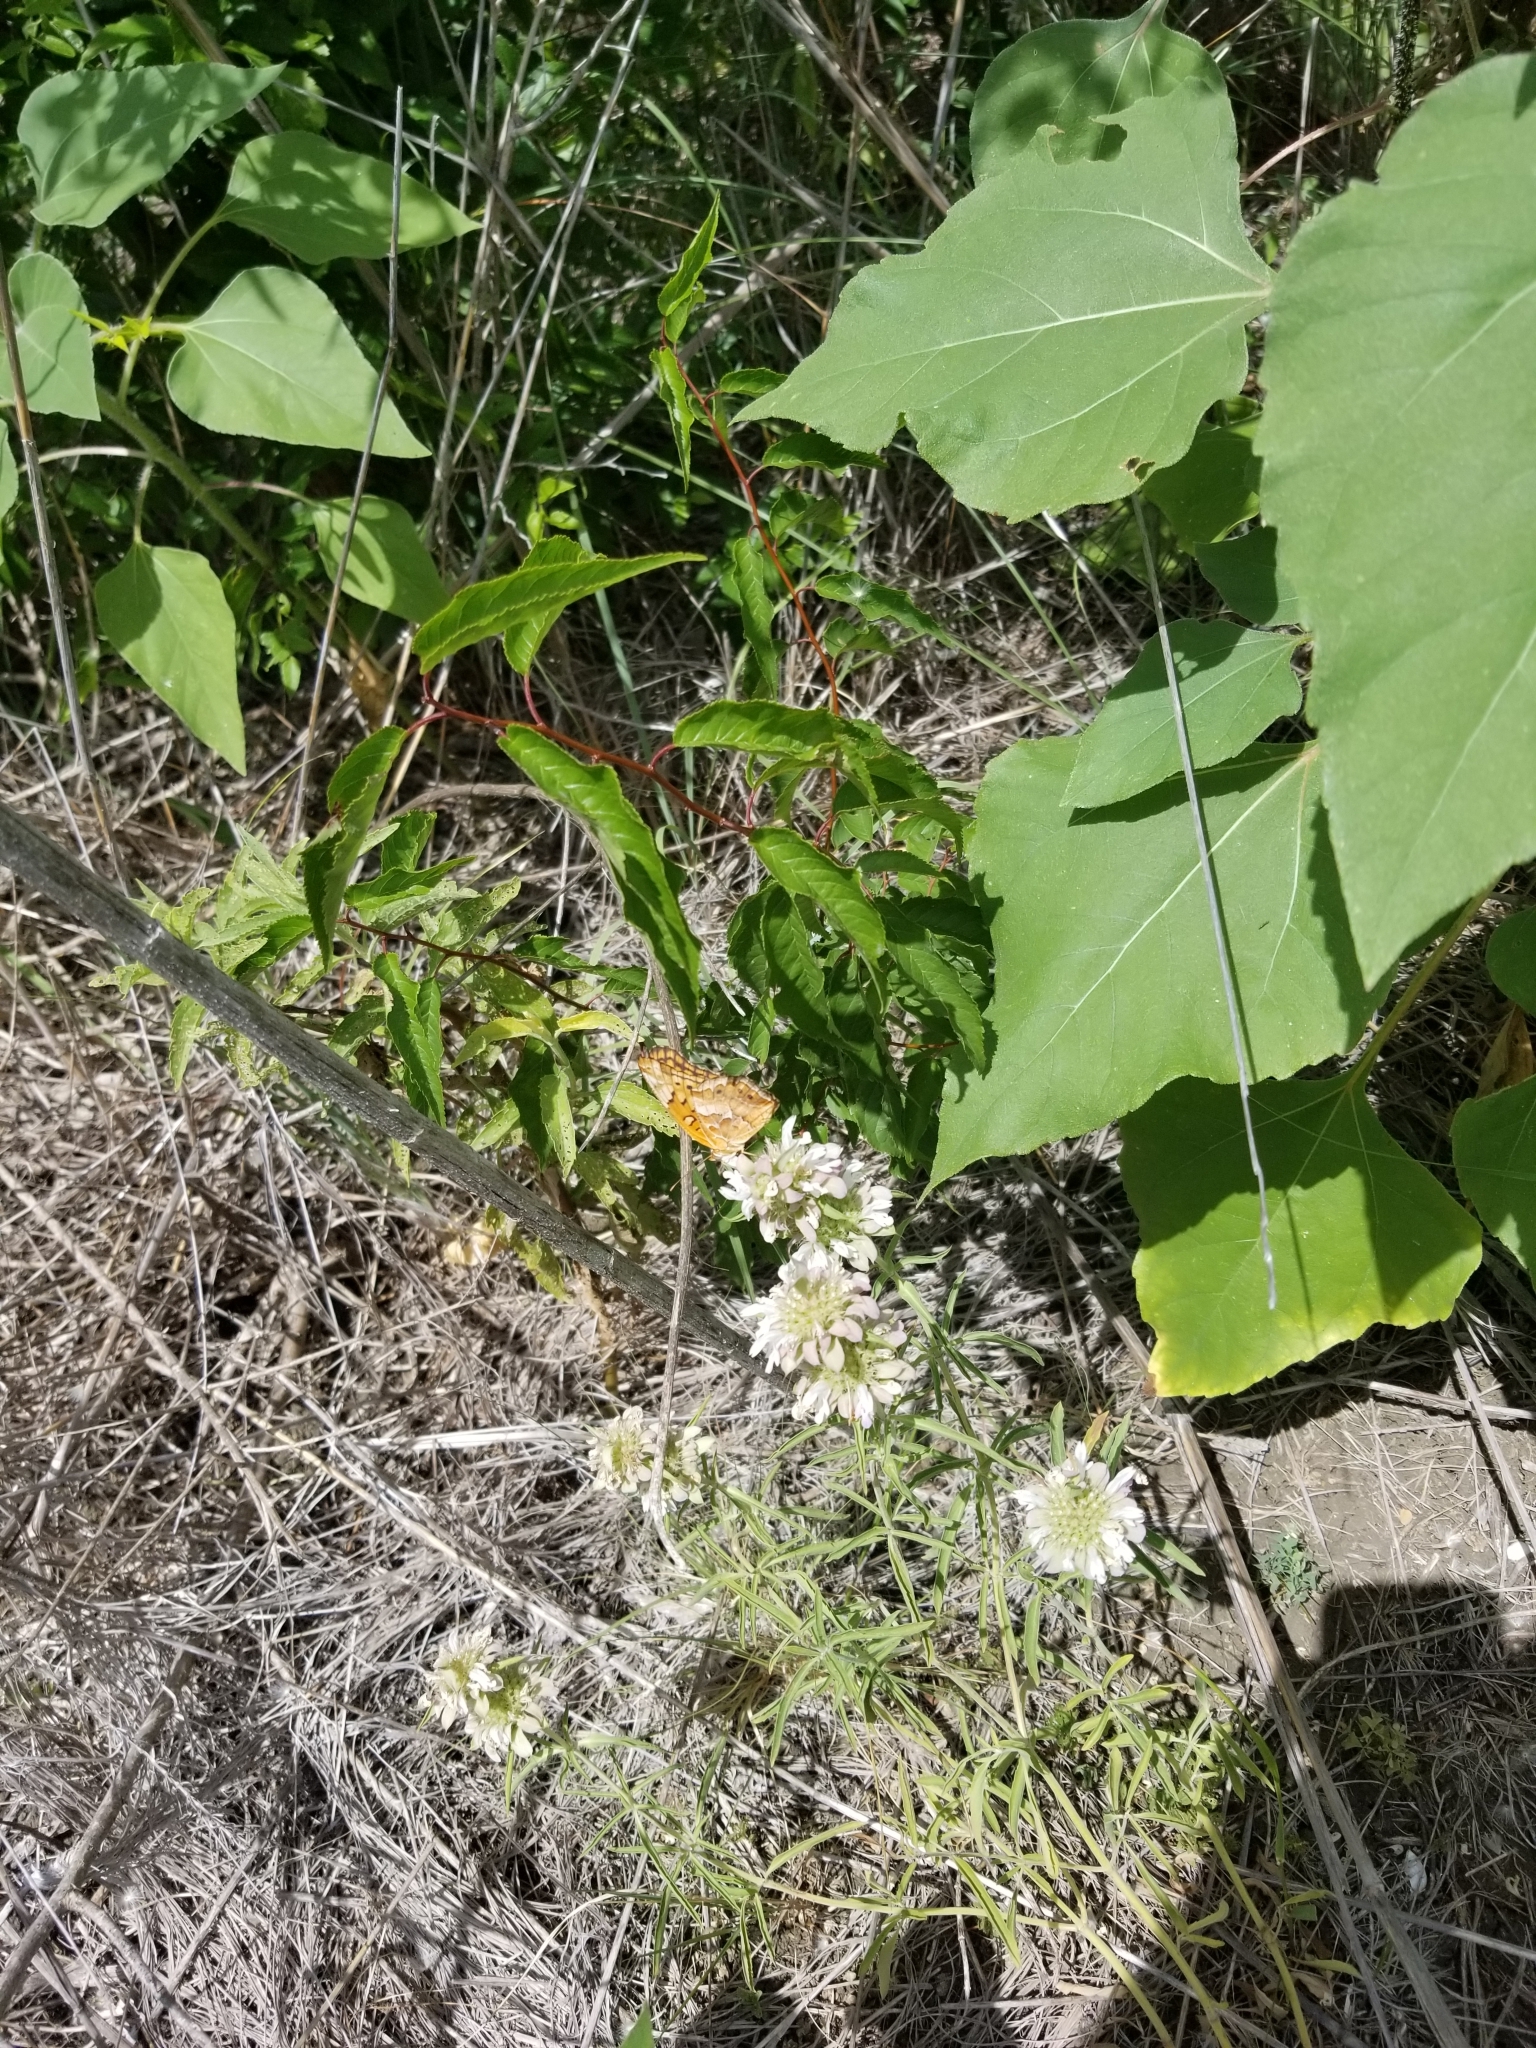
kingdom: Animalia
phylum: Arthropoda
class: Insecta
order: Lepidoptera
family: Nymphalidae
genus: Euptoieta
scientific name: Euptoieta claudia
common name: Variegated fritillary
